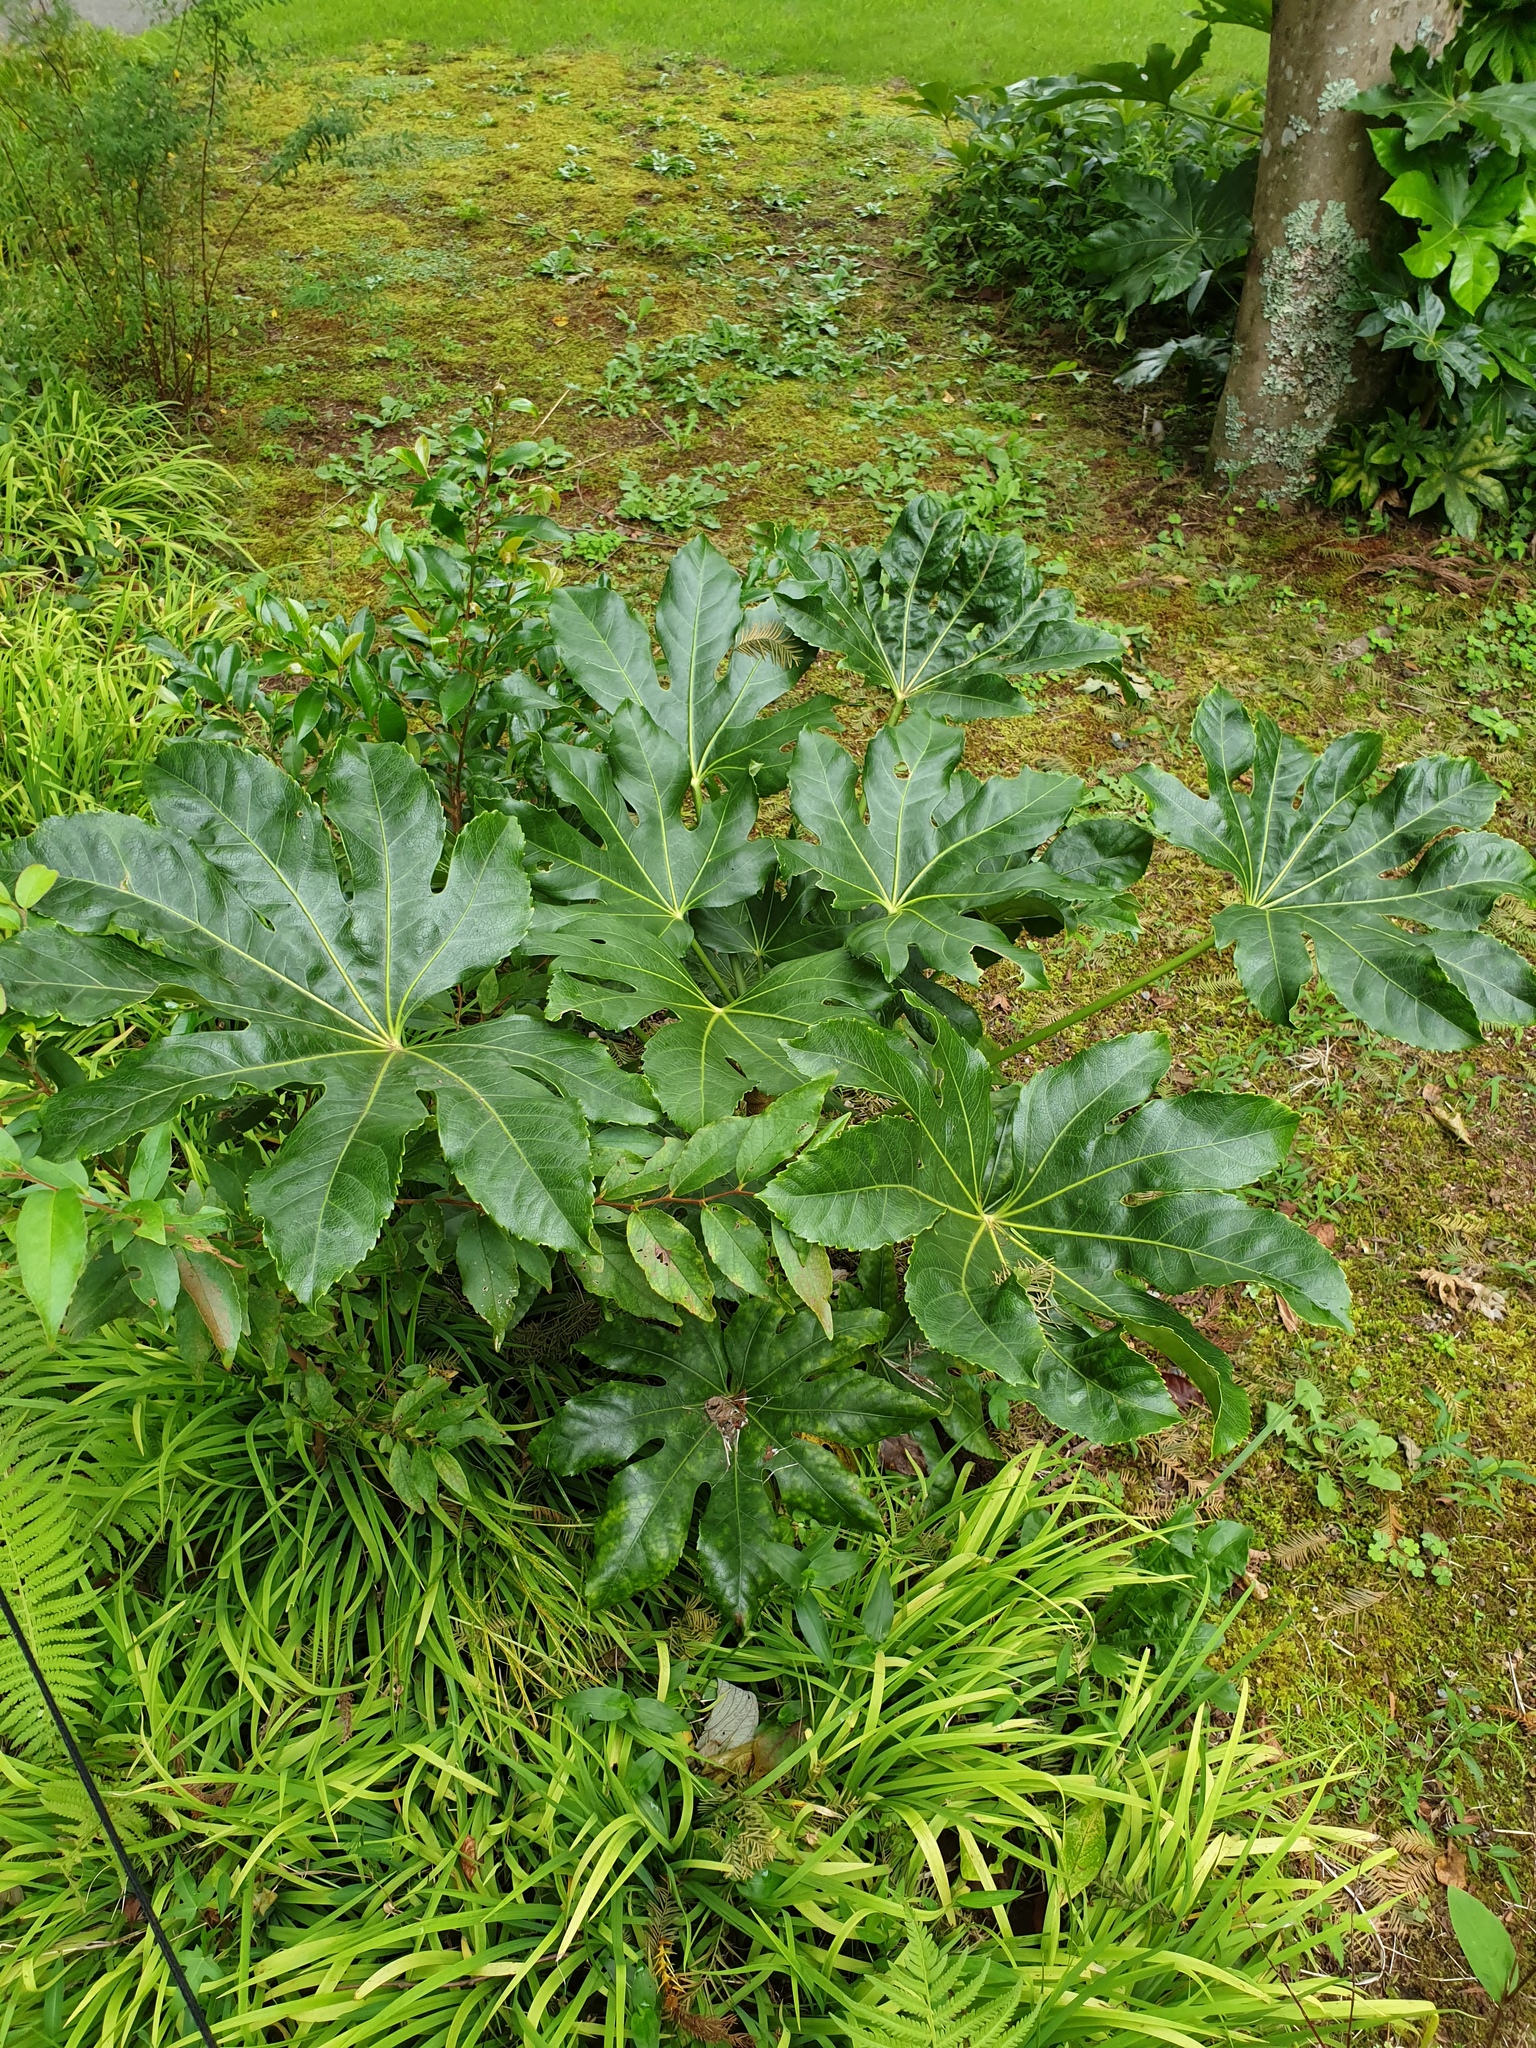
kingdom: Plantae
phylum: Tracheophyta
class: Magnoliopsida
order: Apiales
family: Araliaceae
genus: Fatsia
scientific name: Fatsia japonica
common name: Fatsia
